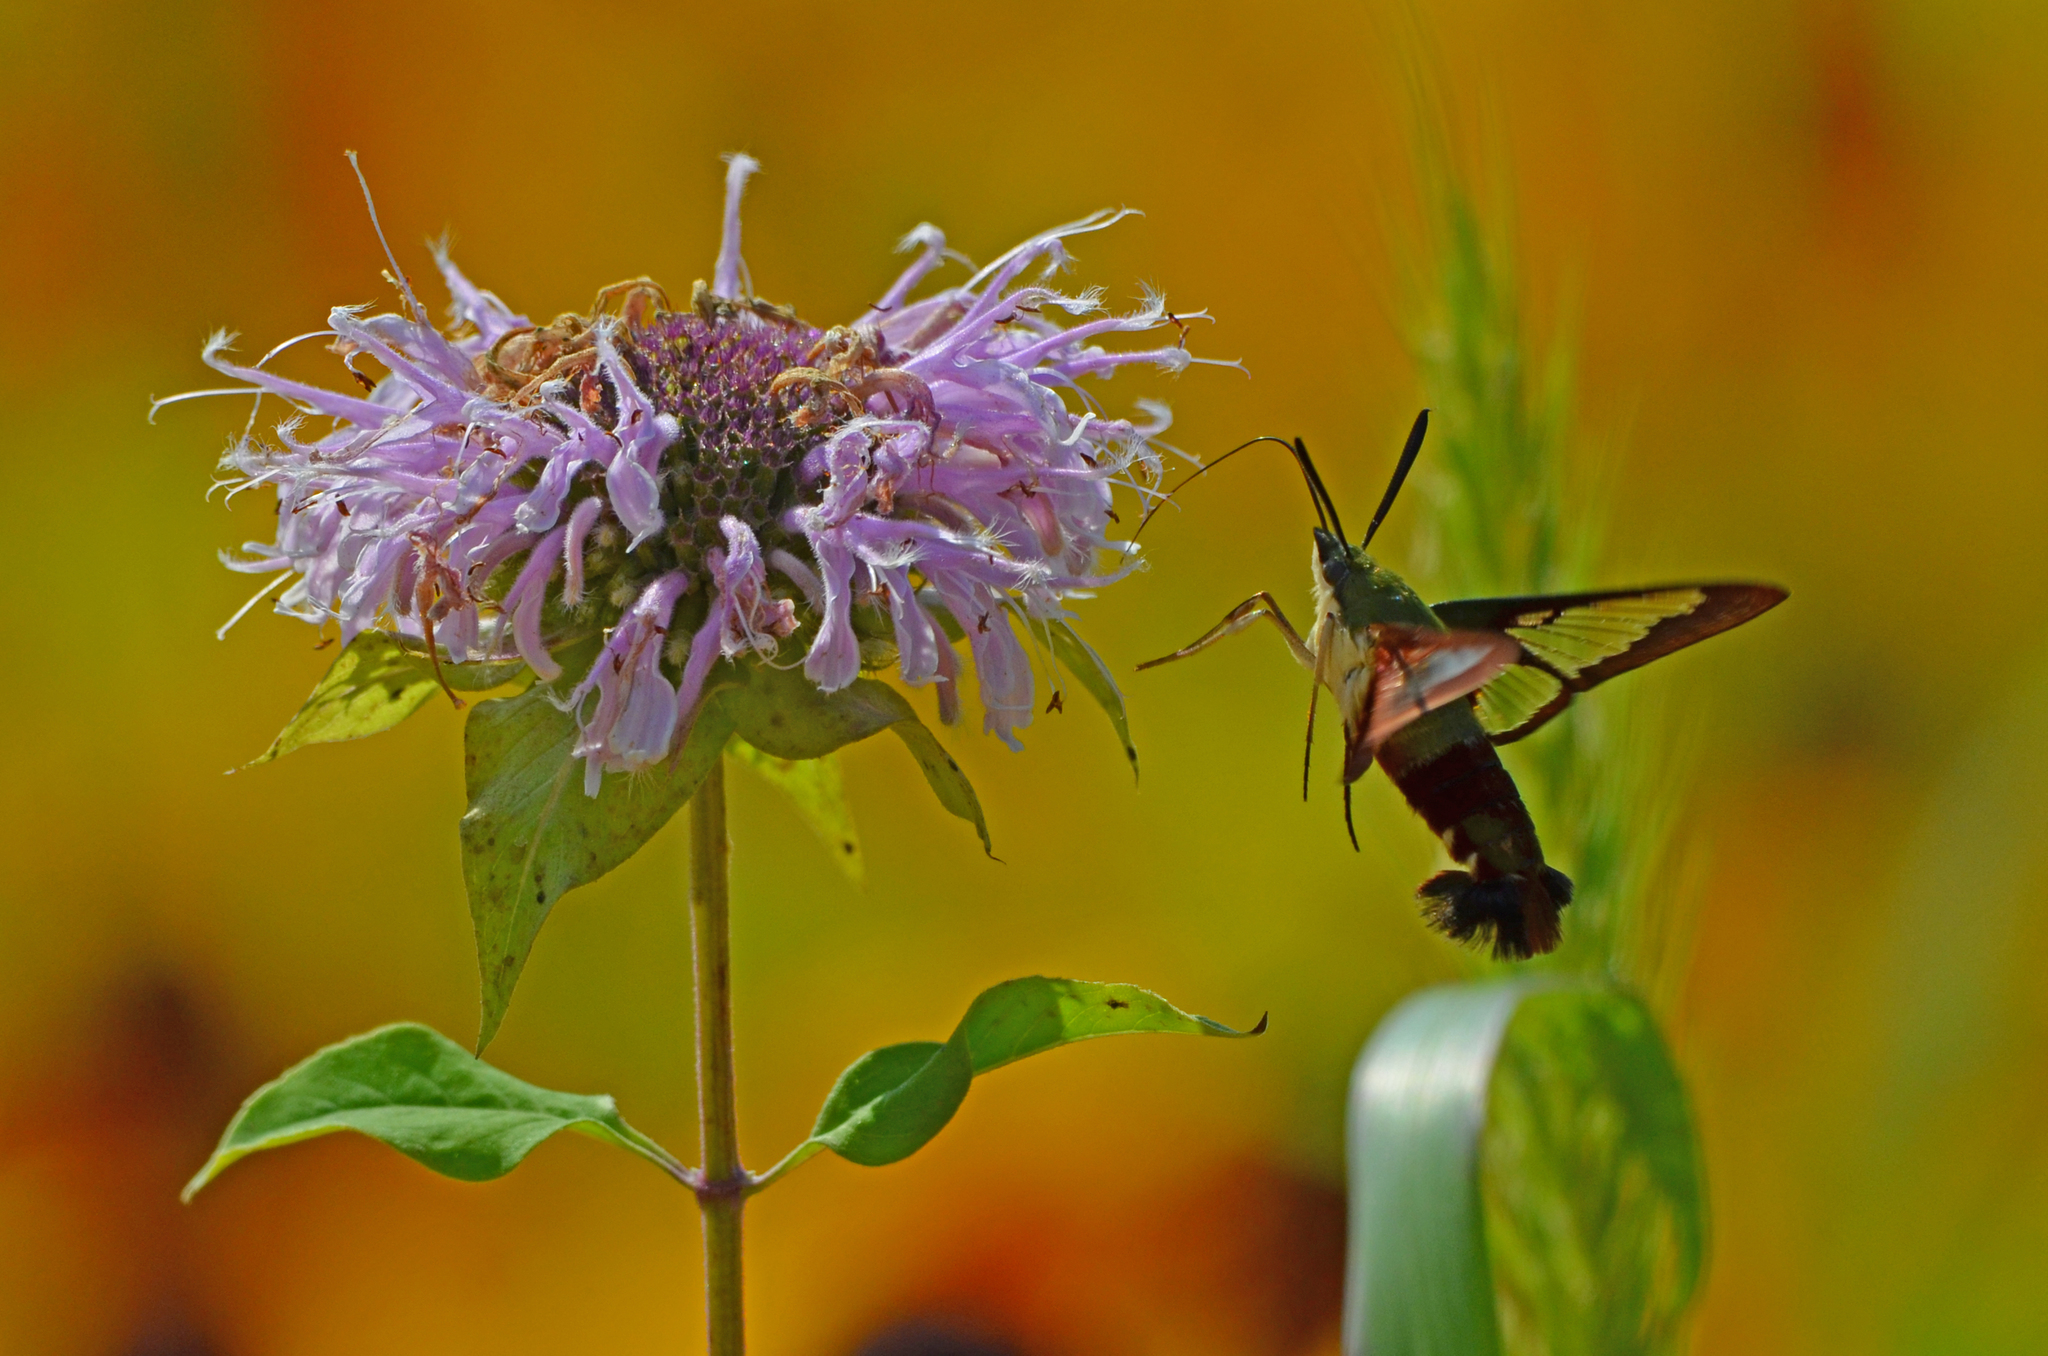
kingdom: Animalia
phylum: Arthropoda
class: Insecta
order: Lepidoptera
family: Sphingidae
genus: Hemaris
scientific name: Hemaris thysbe
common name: Common clear-wing
